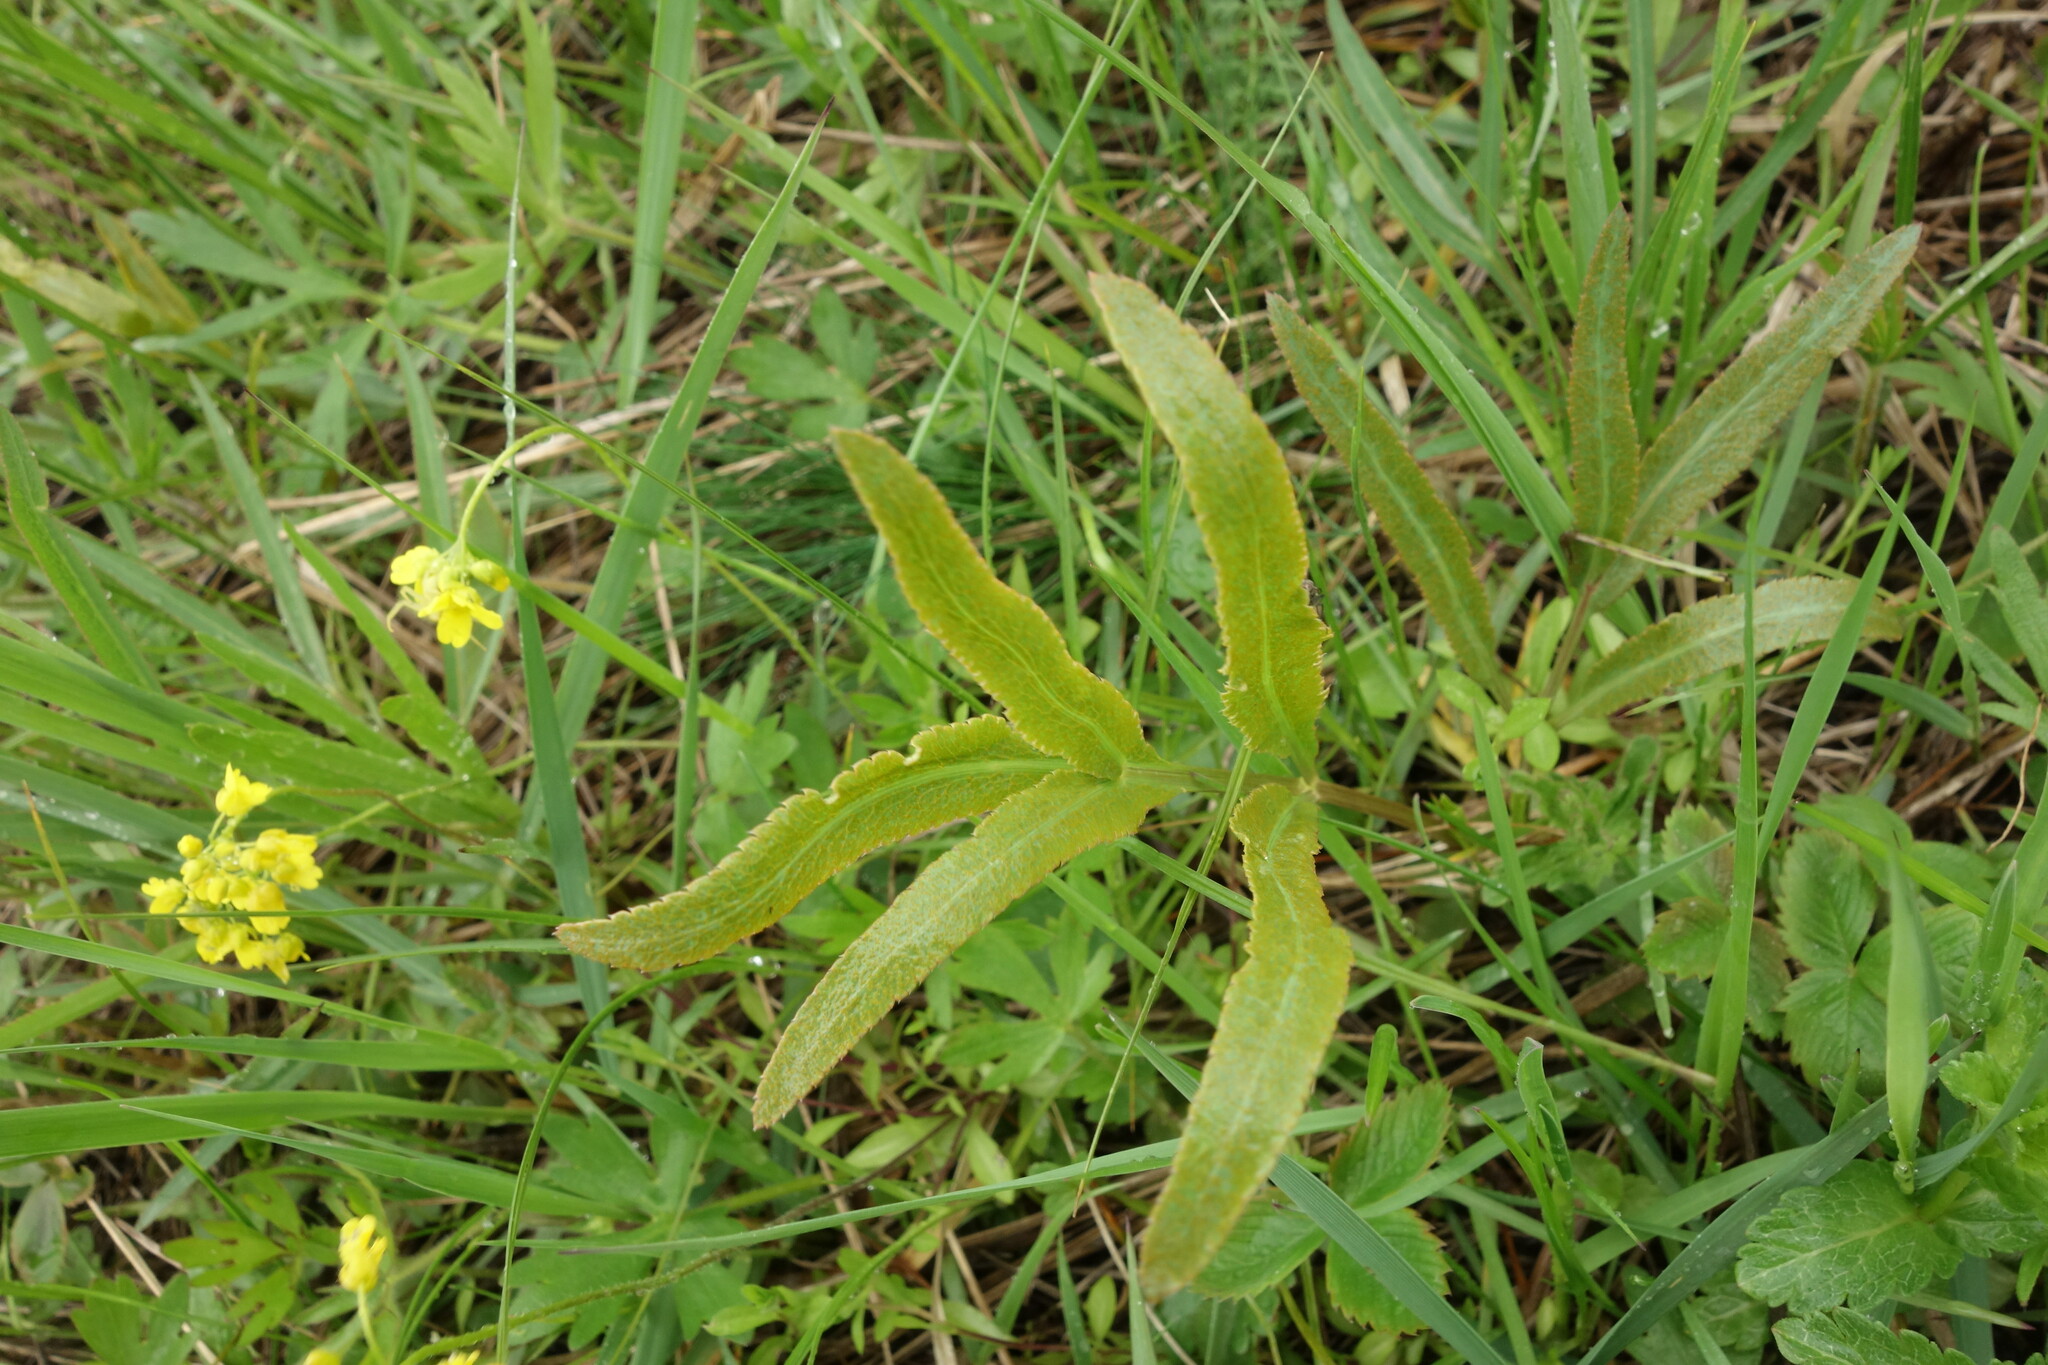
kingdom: Fungi
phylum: Basidiomycota
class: Pucciniomycetes
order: Pucciniales
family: Pucciniaceae
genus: Puccinia
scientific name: Puccinia sii-falcariae
